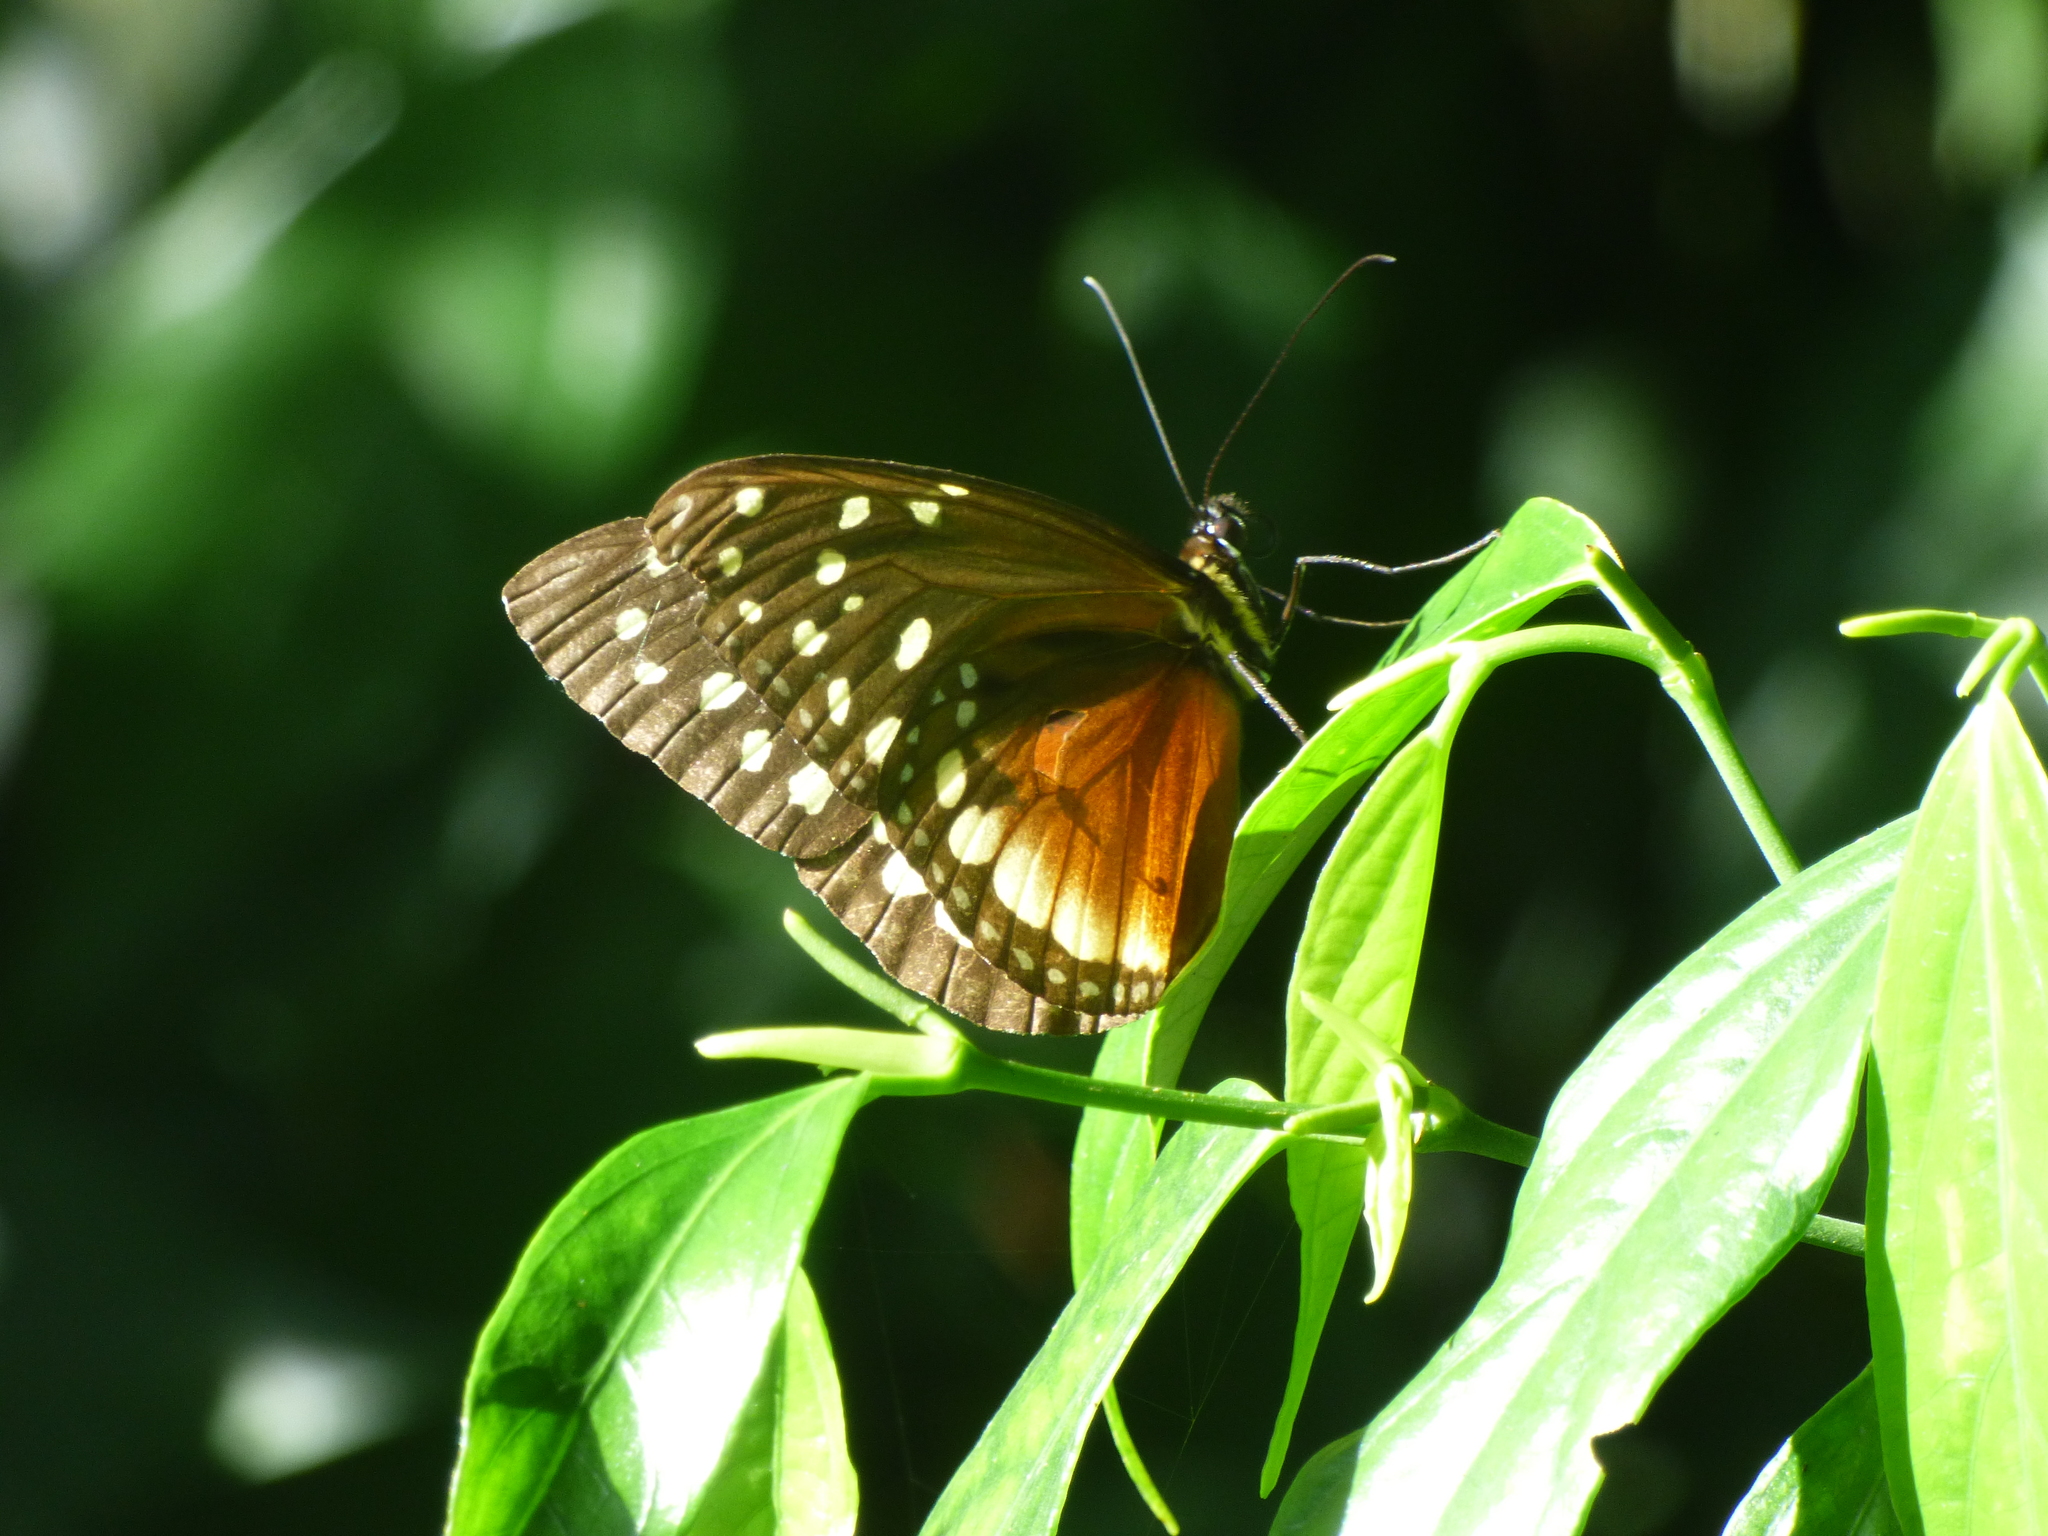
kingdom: Animalia
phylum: Arthropoda
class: Insecta
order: Lepidoptera
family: Nymphalidae
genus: Tithorea
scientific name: Tithorea tarricina
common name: Cream-spotted tigerwing
